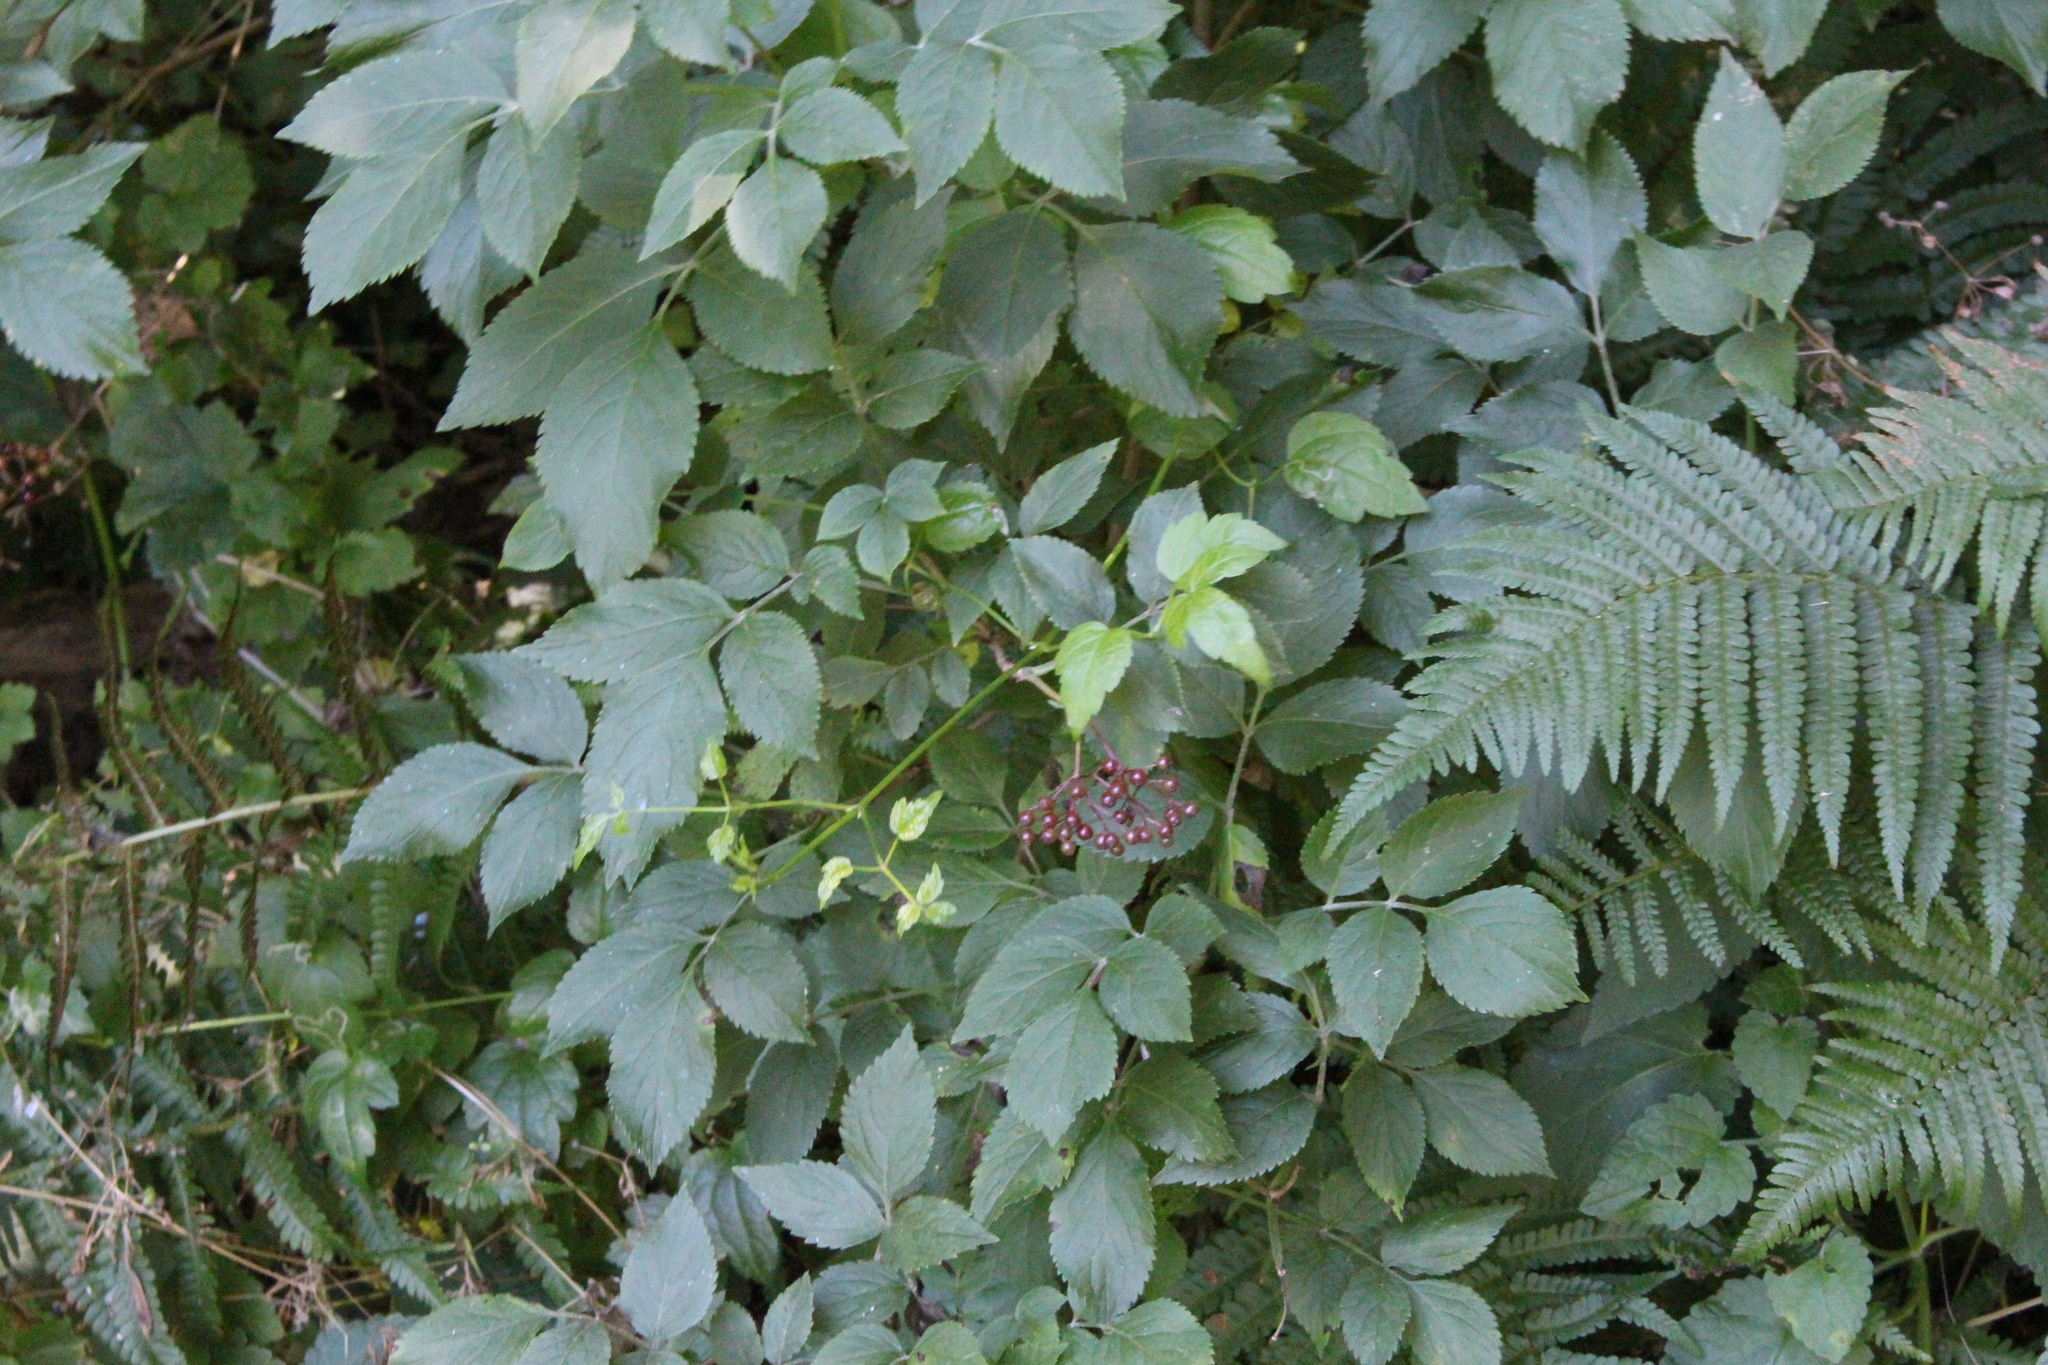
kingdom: Plantae
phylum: Tracheophyta
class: Magnoliopsida
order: Dipsacales
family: Viburnaceae
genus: Sambucus
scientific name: Sambucus nigra
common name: Elder
